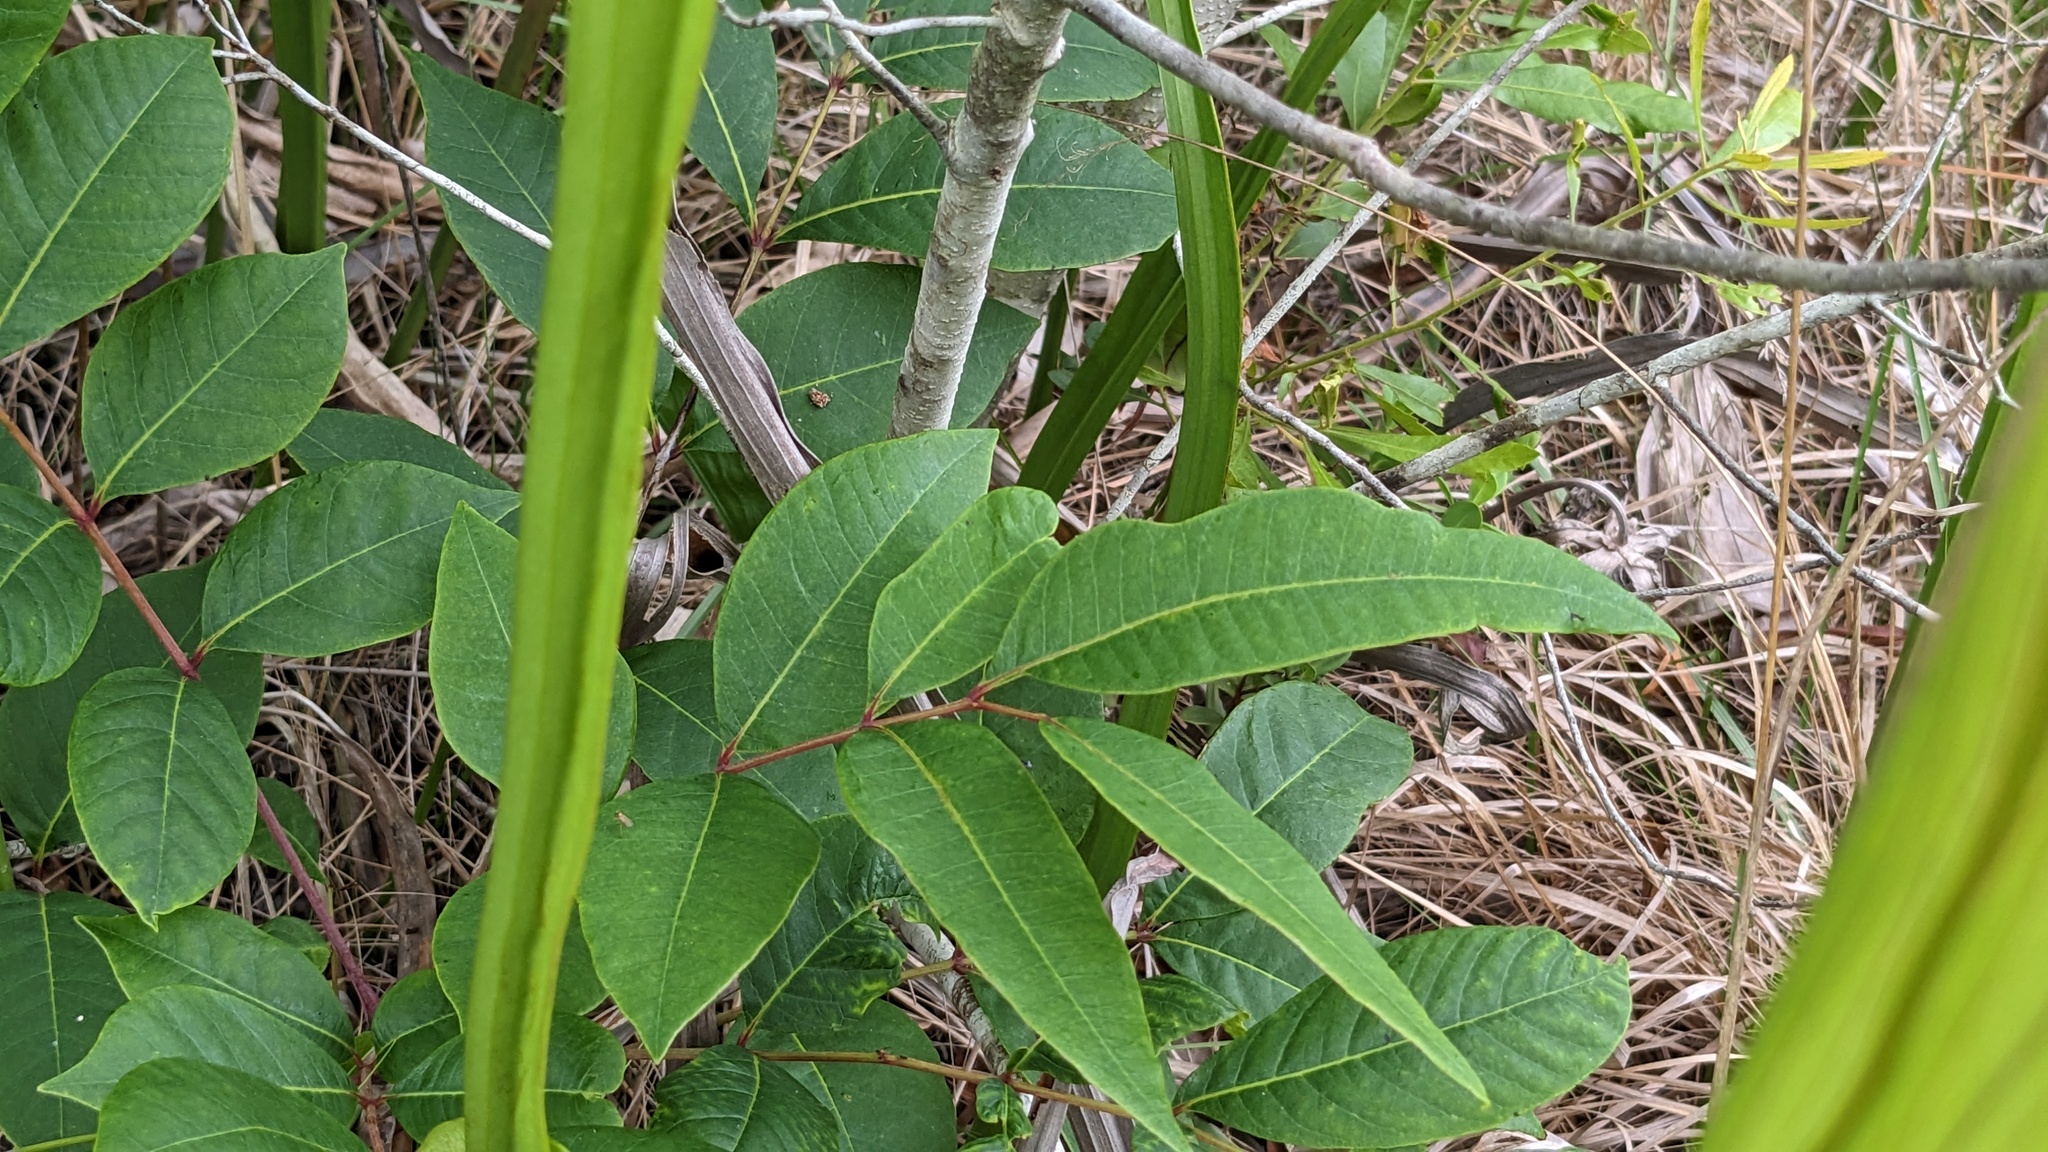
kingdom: Plantae
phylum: Tracheophyta
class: Magnoliopsida
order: Sapindales
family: Anacardiaceae
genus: Toxicodendron
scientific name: Toxicodendron vernix
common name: Poison sumac
